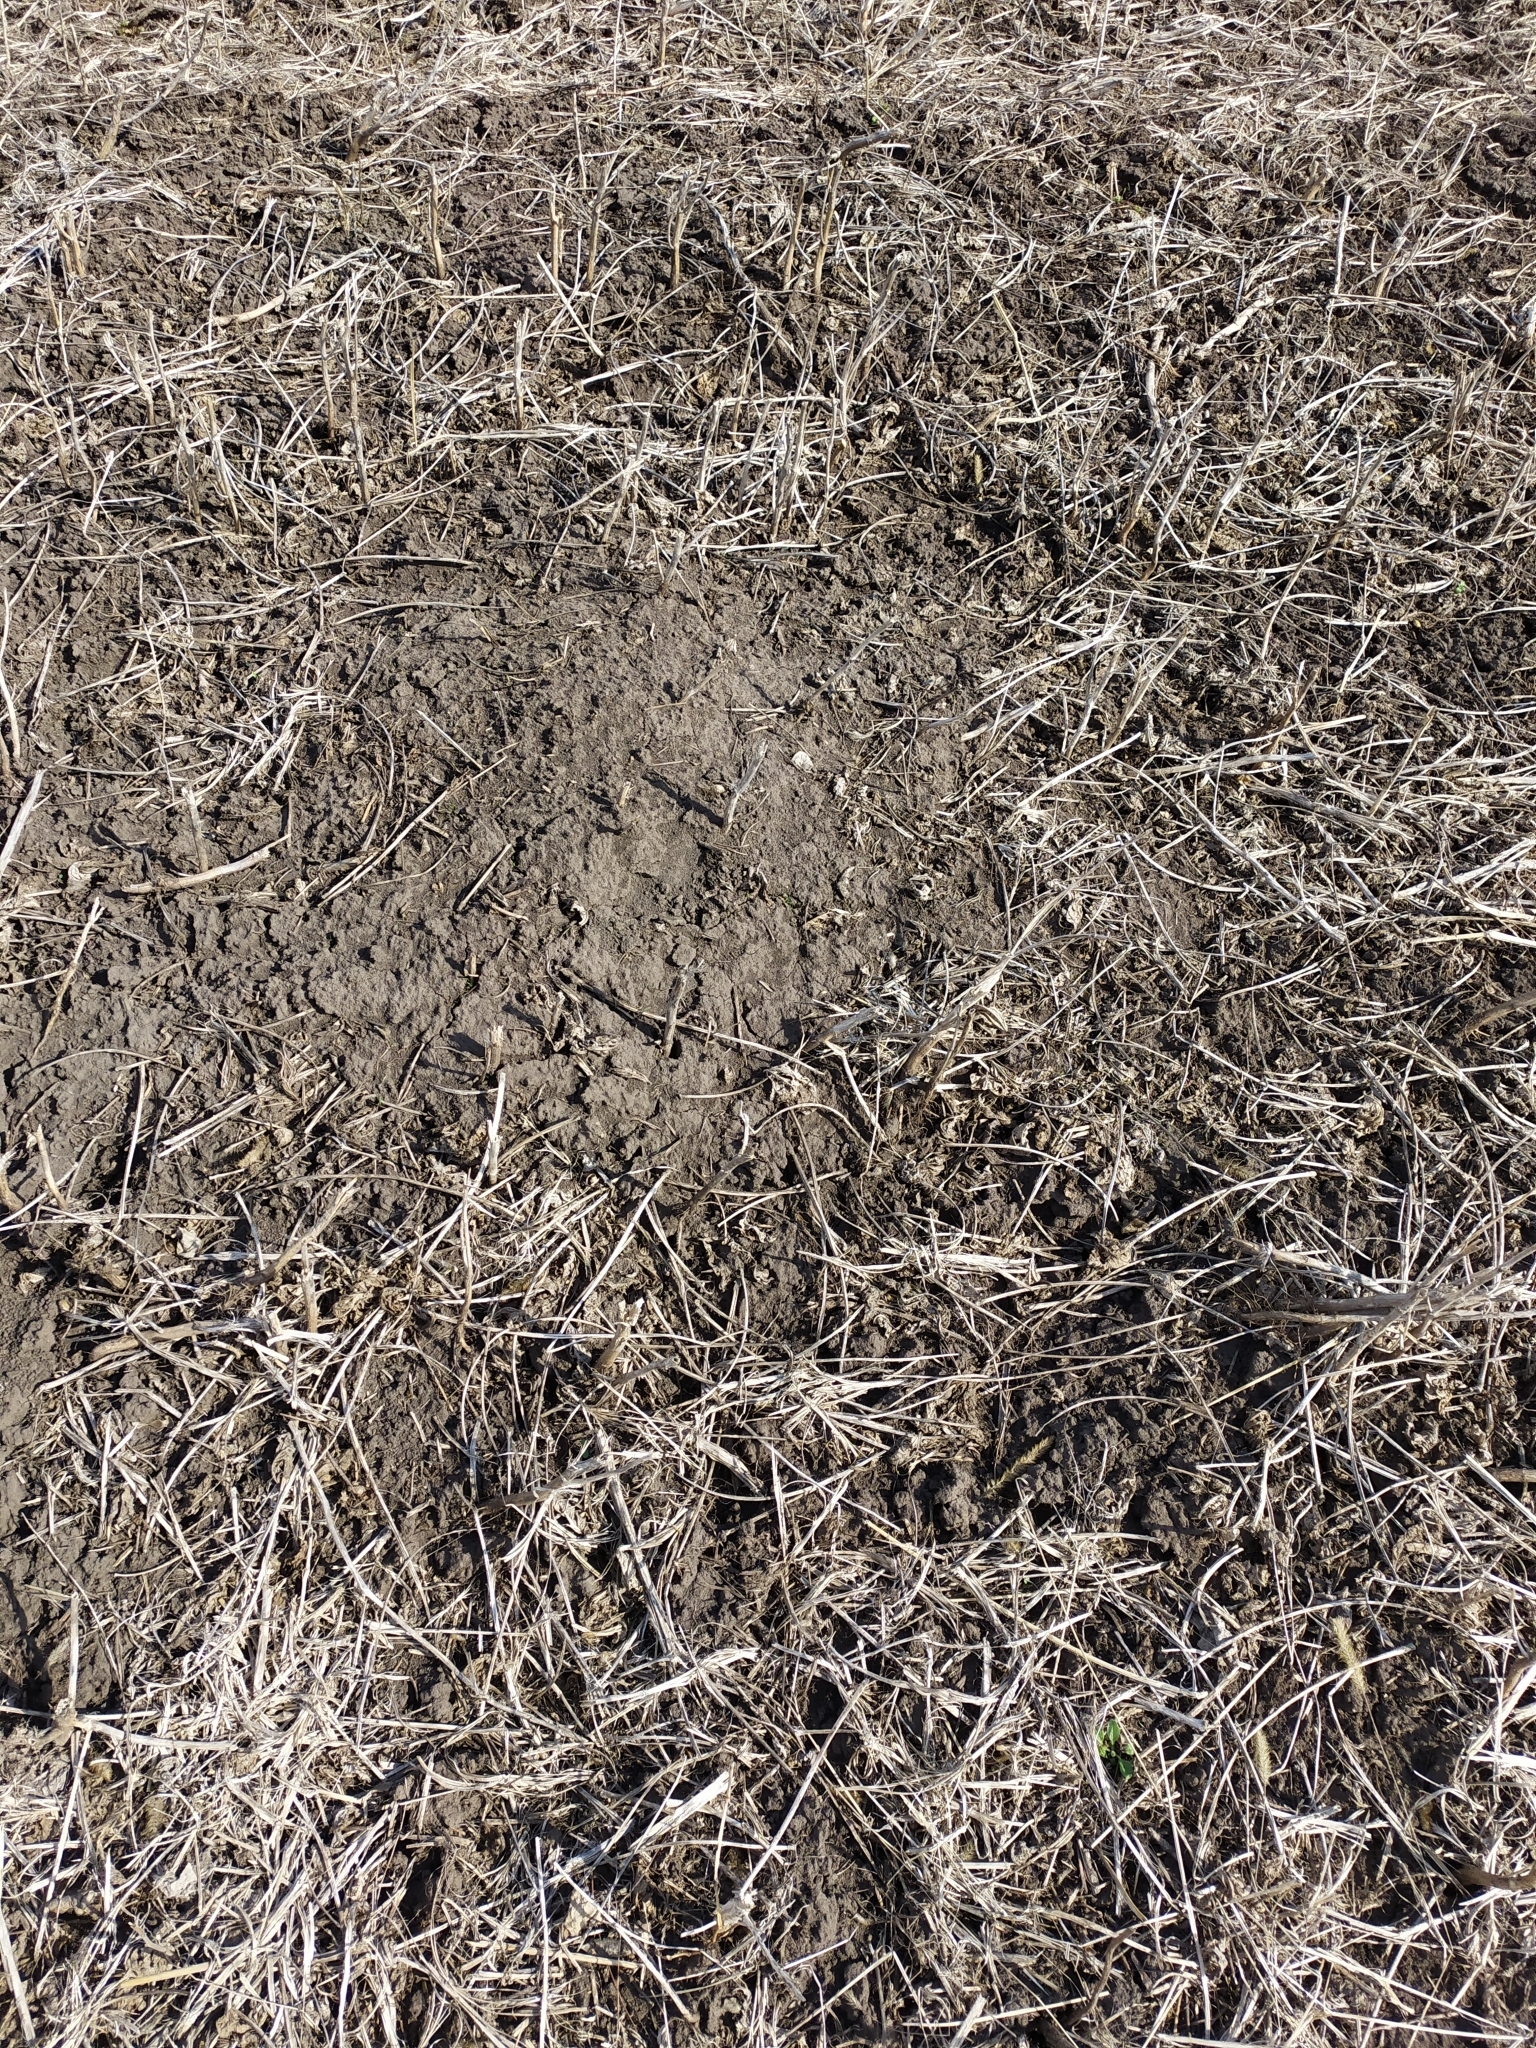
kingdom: Animalia
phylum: Chordata
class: Mammalia
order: Rodentia
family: Muridae
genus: Mus
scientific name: Mus spicilegus
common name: Mound-building mouse
